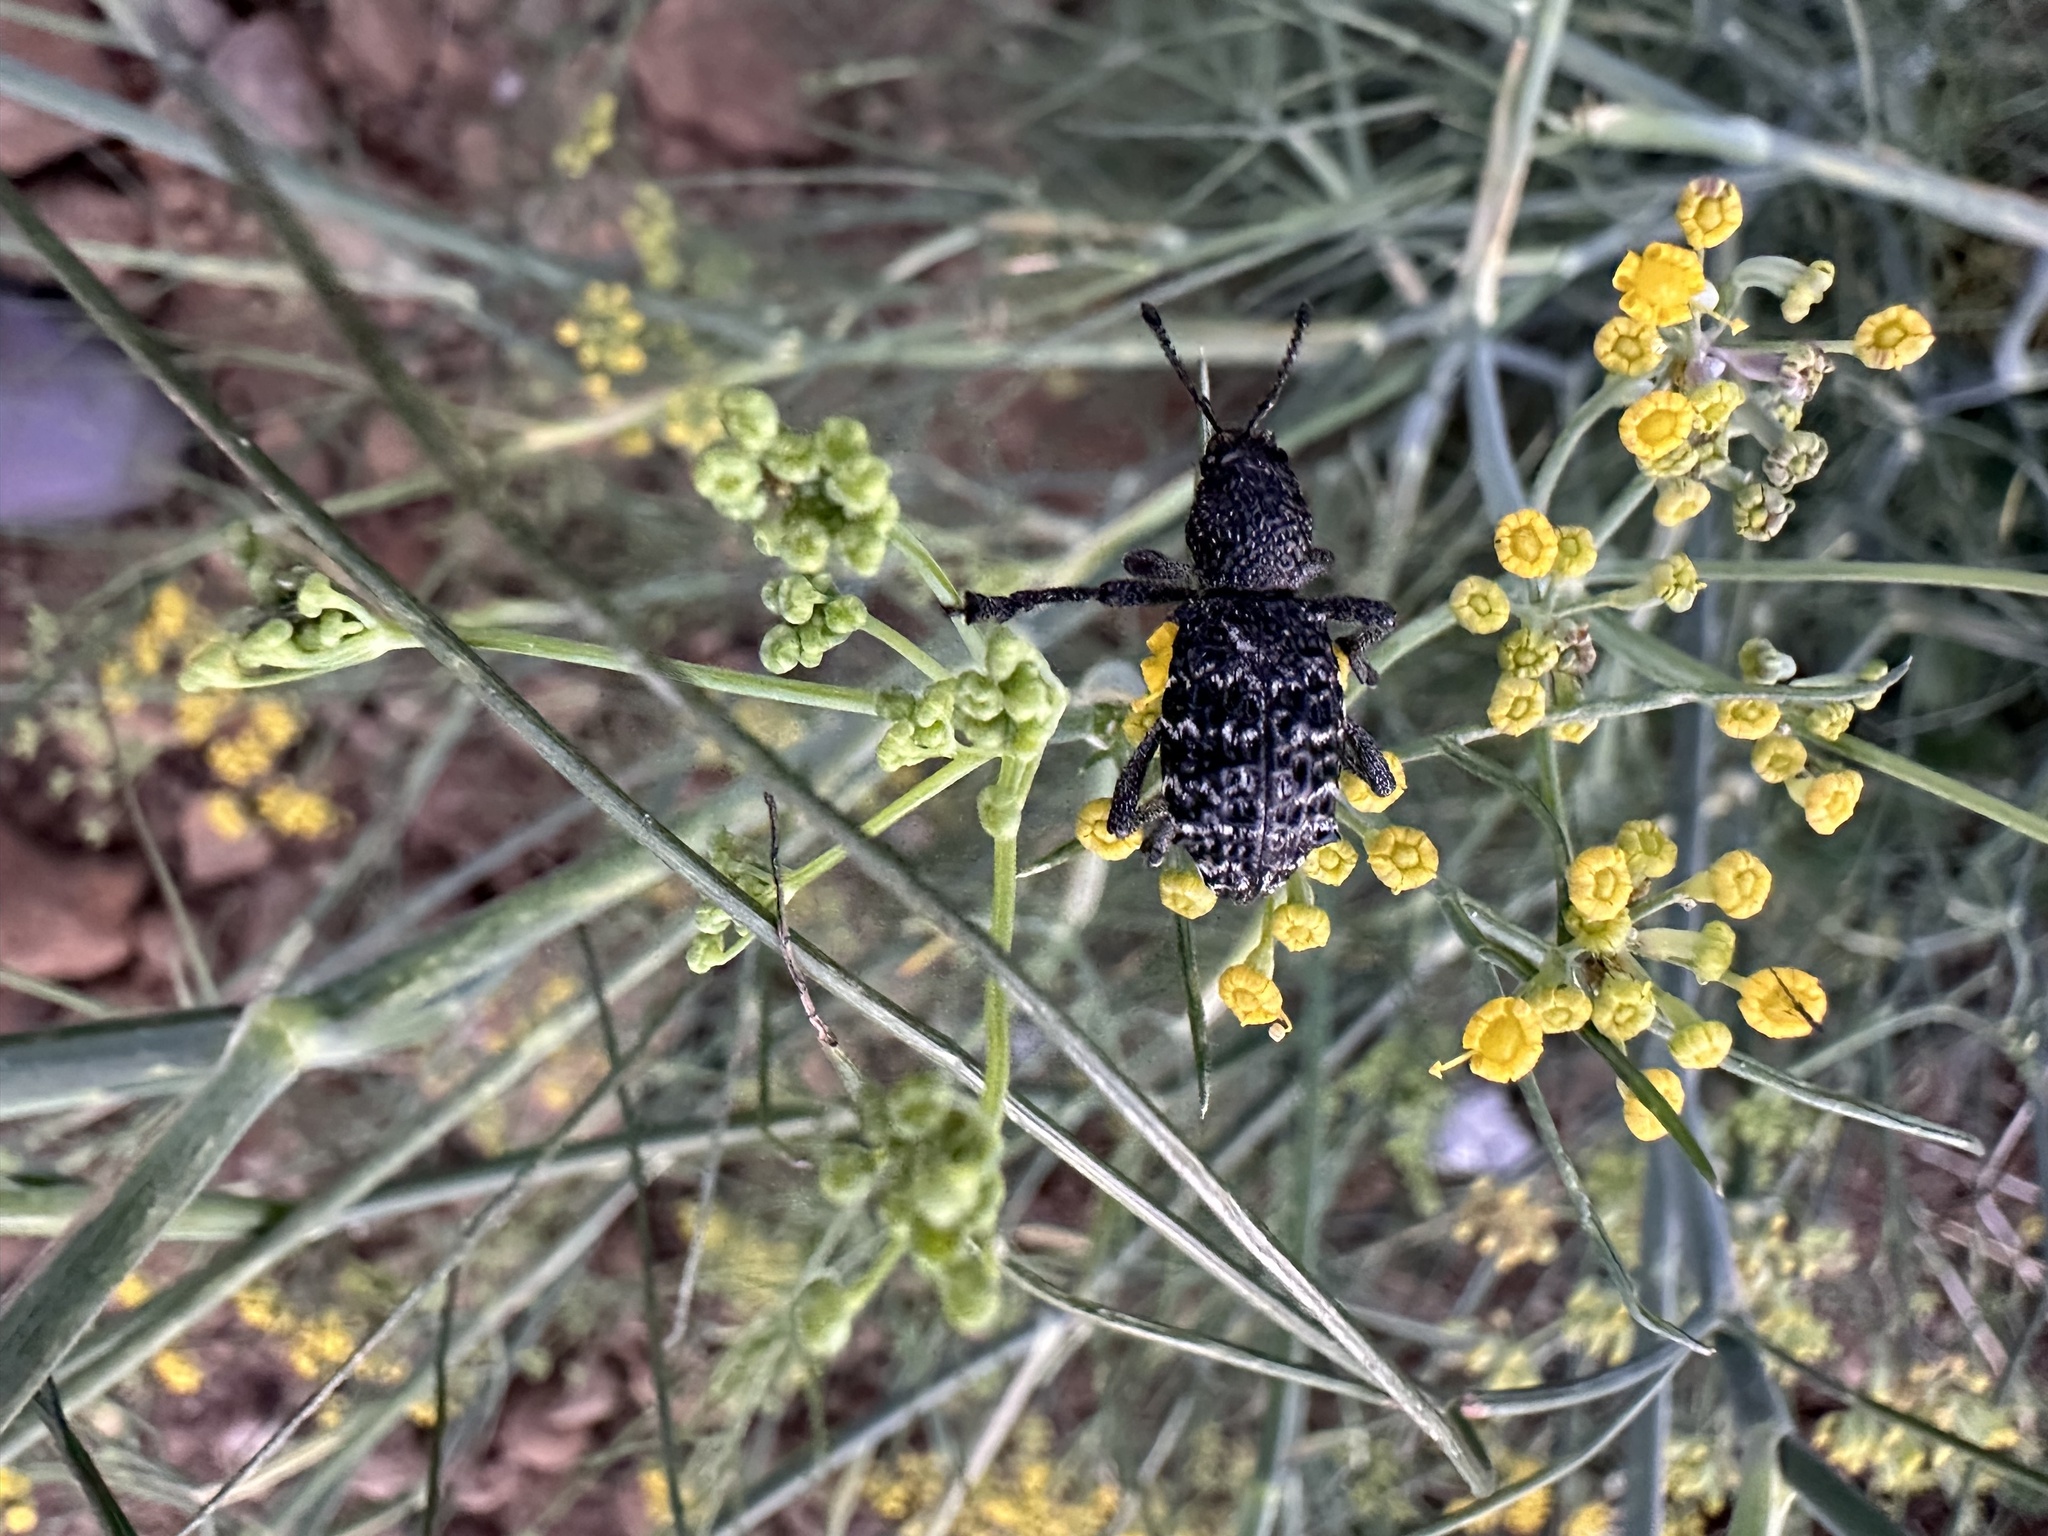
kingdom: Animalia
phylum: Arthropoda
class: Insecta
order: Coleoptera
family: Curculionidae
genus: Aegorhinus
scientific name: Aegorhinus superciliosus
